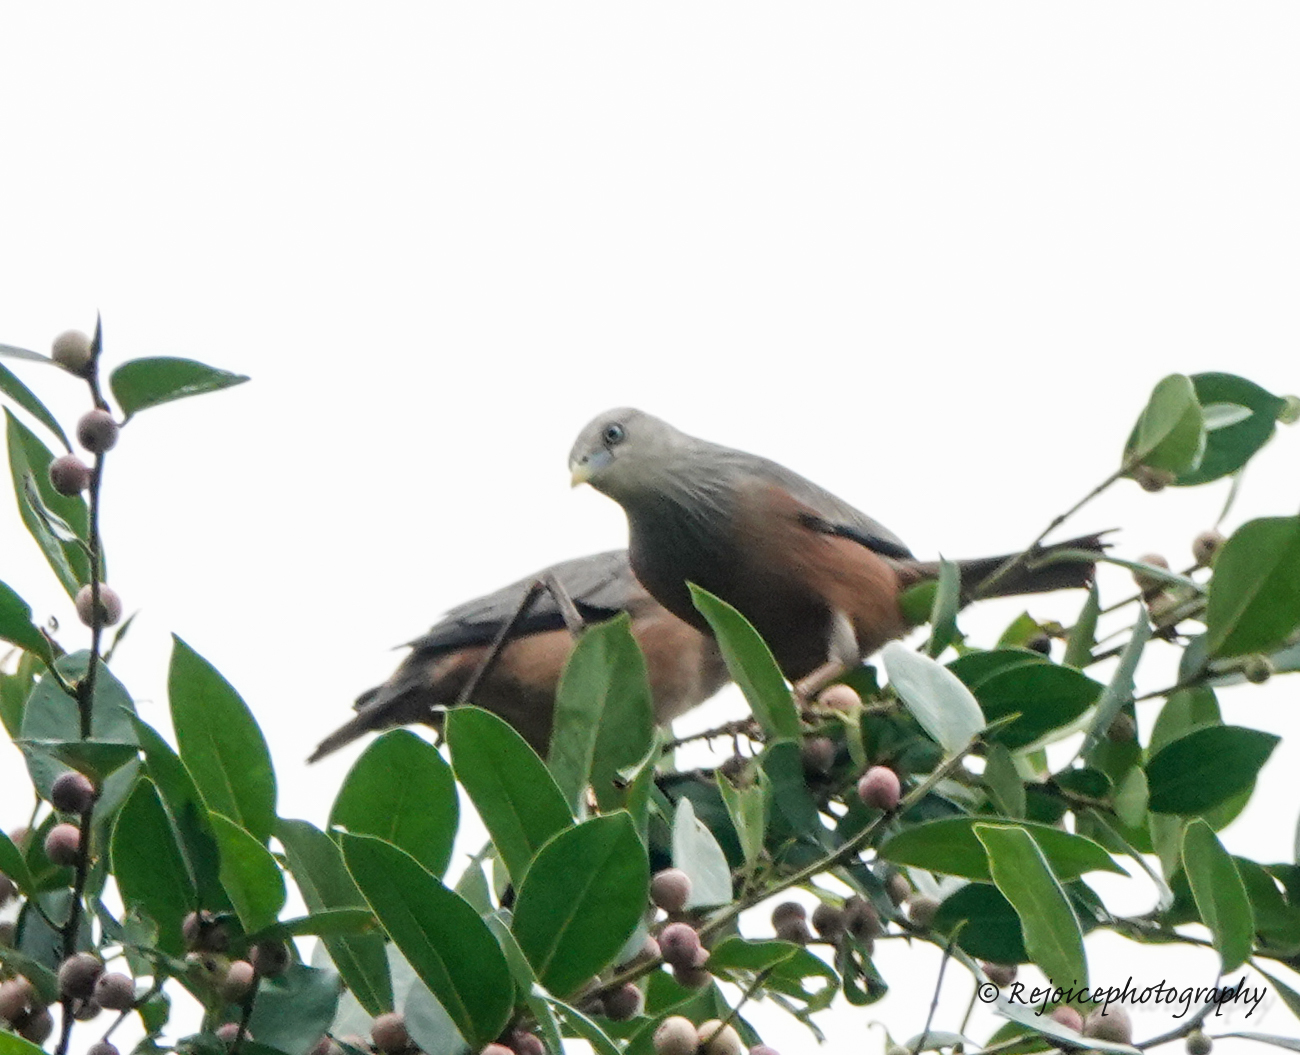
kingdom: Animalia
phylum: Chordata
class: Aves
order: Passeriformes
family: Sturnidae
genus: Sturnia
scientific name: Sturnia malabarica
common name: Chestnut-tailed starling
